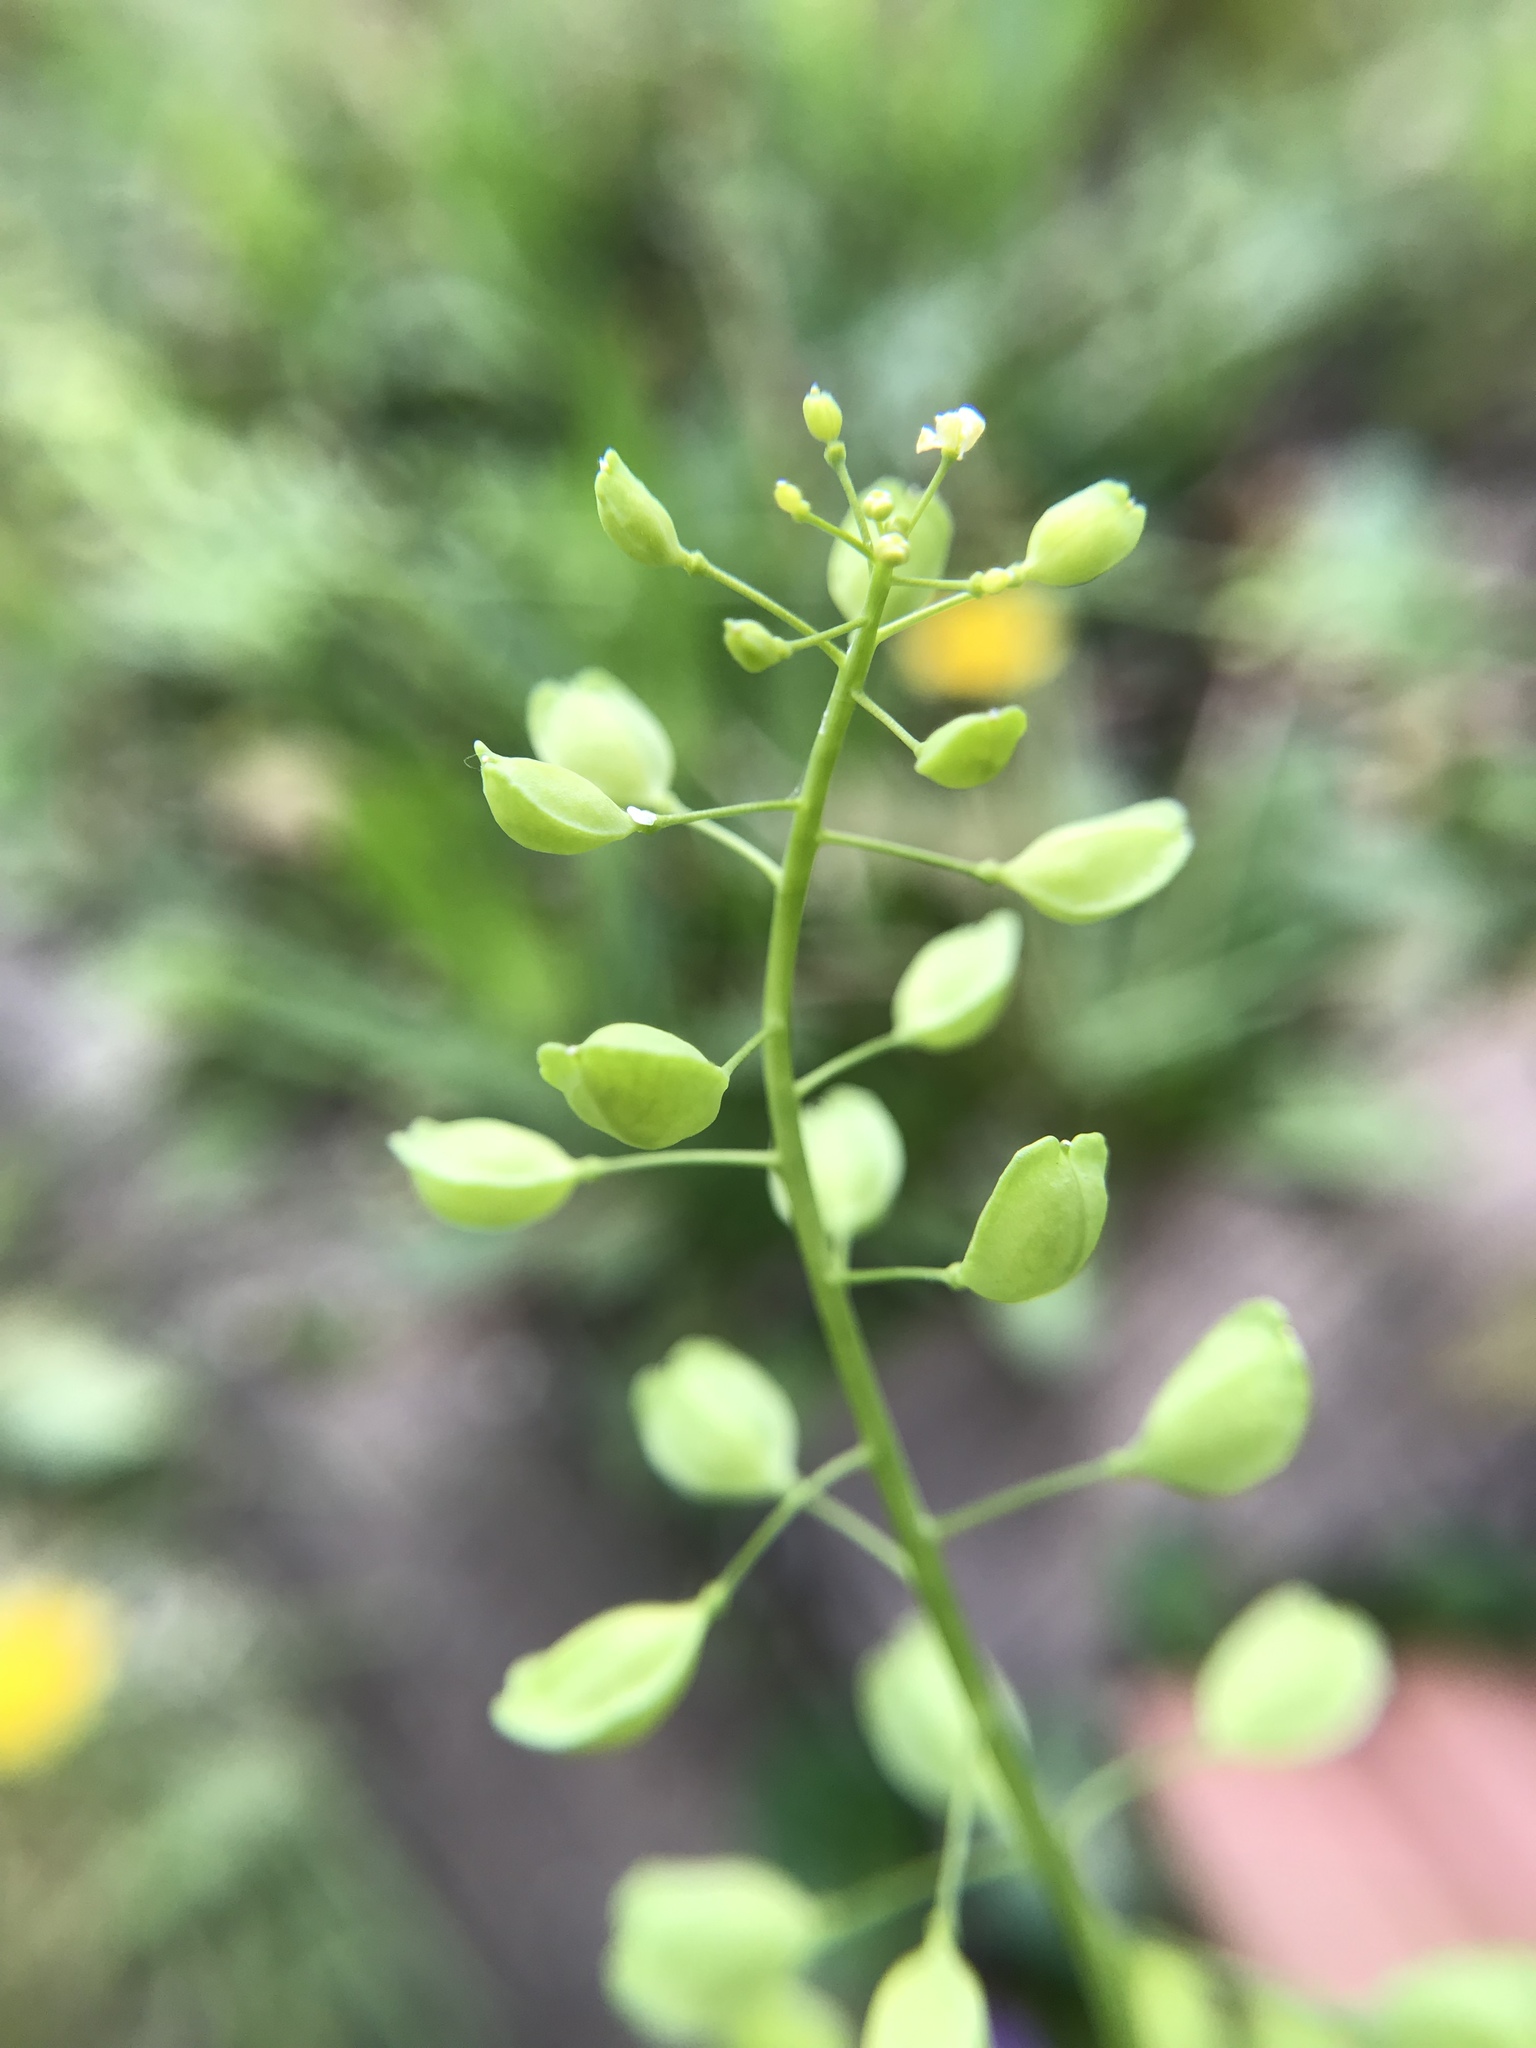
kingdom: Plantae
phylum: Tracheophyta
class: Magnoliopsida
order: Brassicales
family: Brassicaceae
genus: Mummenhoffia
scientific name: Mummenhoffia alliacea
